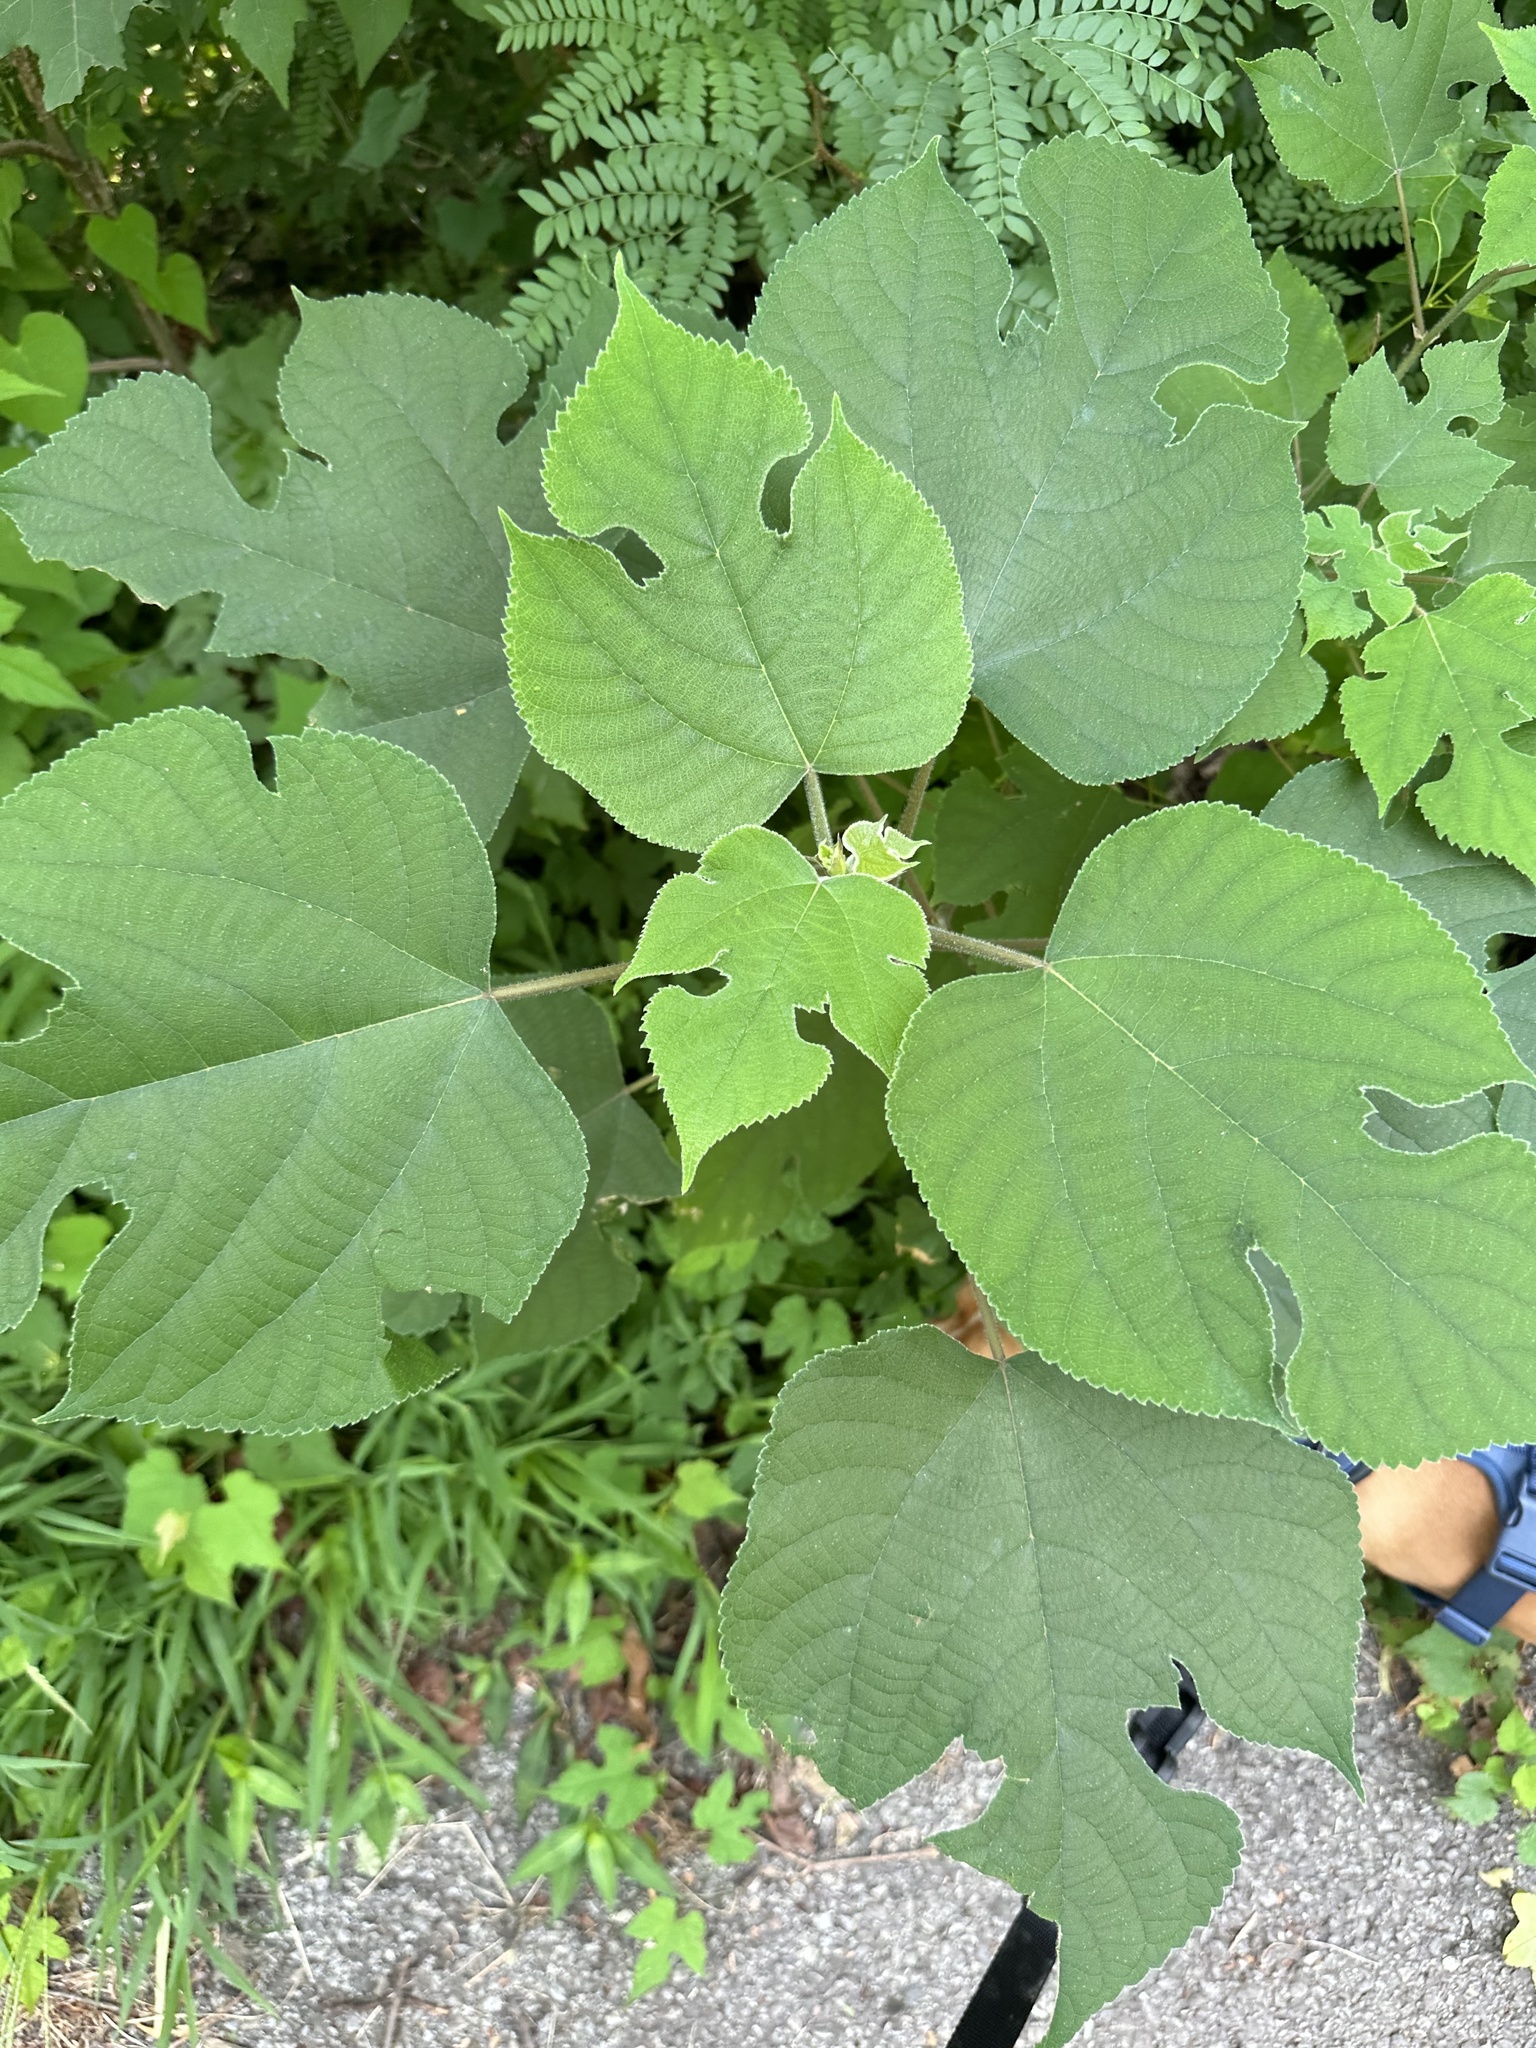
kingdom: Plantae
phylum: Tracheophyta
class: Magnoliopsida
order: Rosales
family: Moraceae
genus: Broussonetia
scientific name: Broussonetia papyrifera
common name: Paper mulberry
